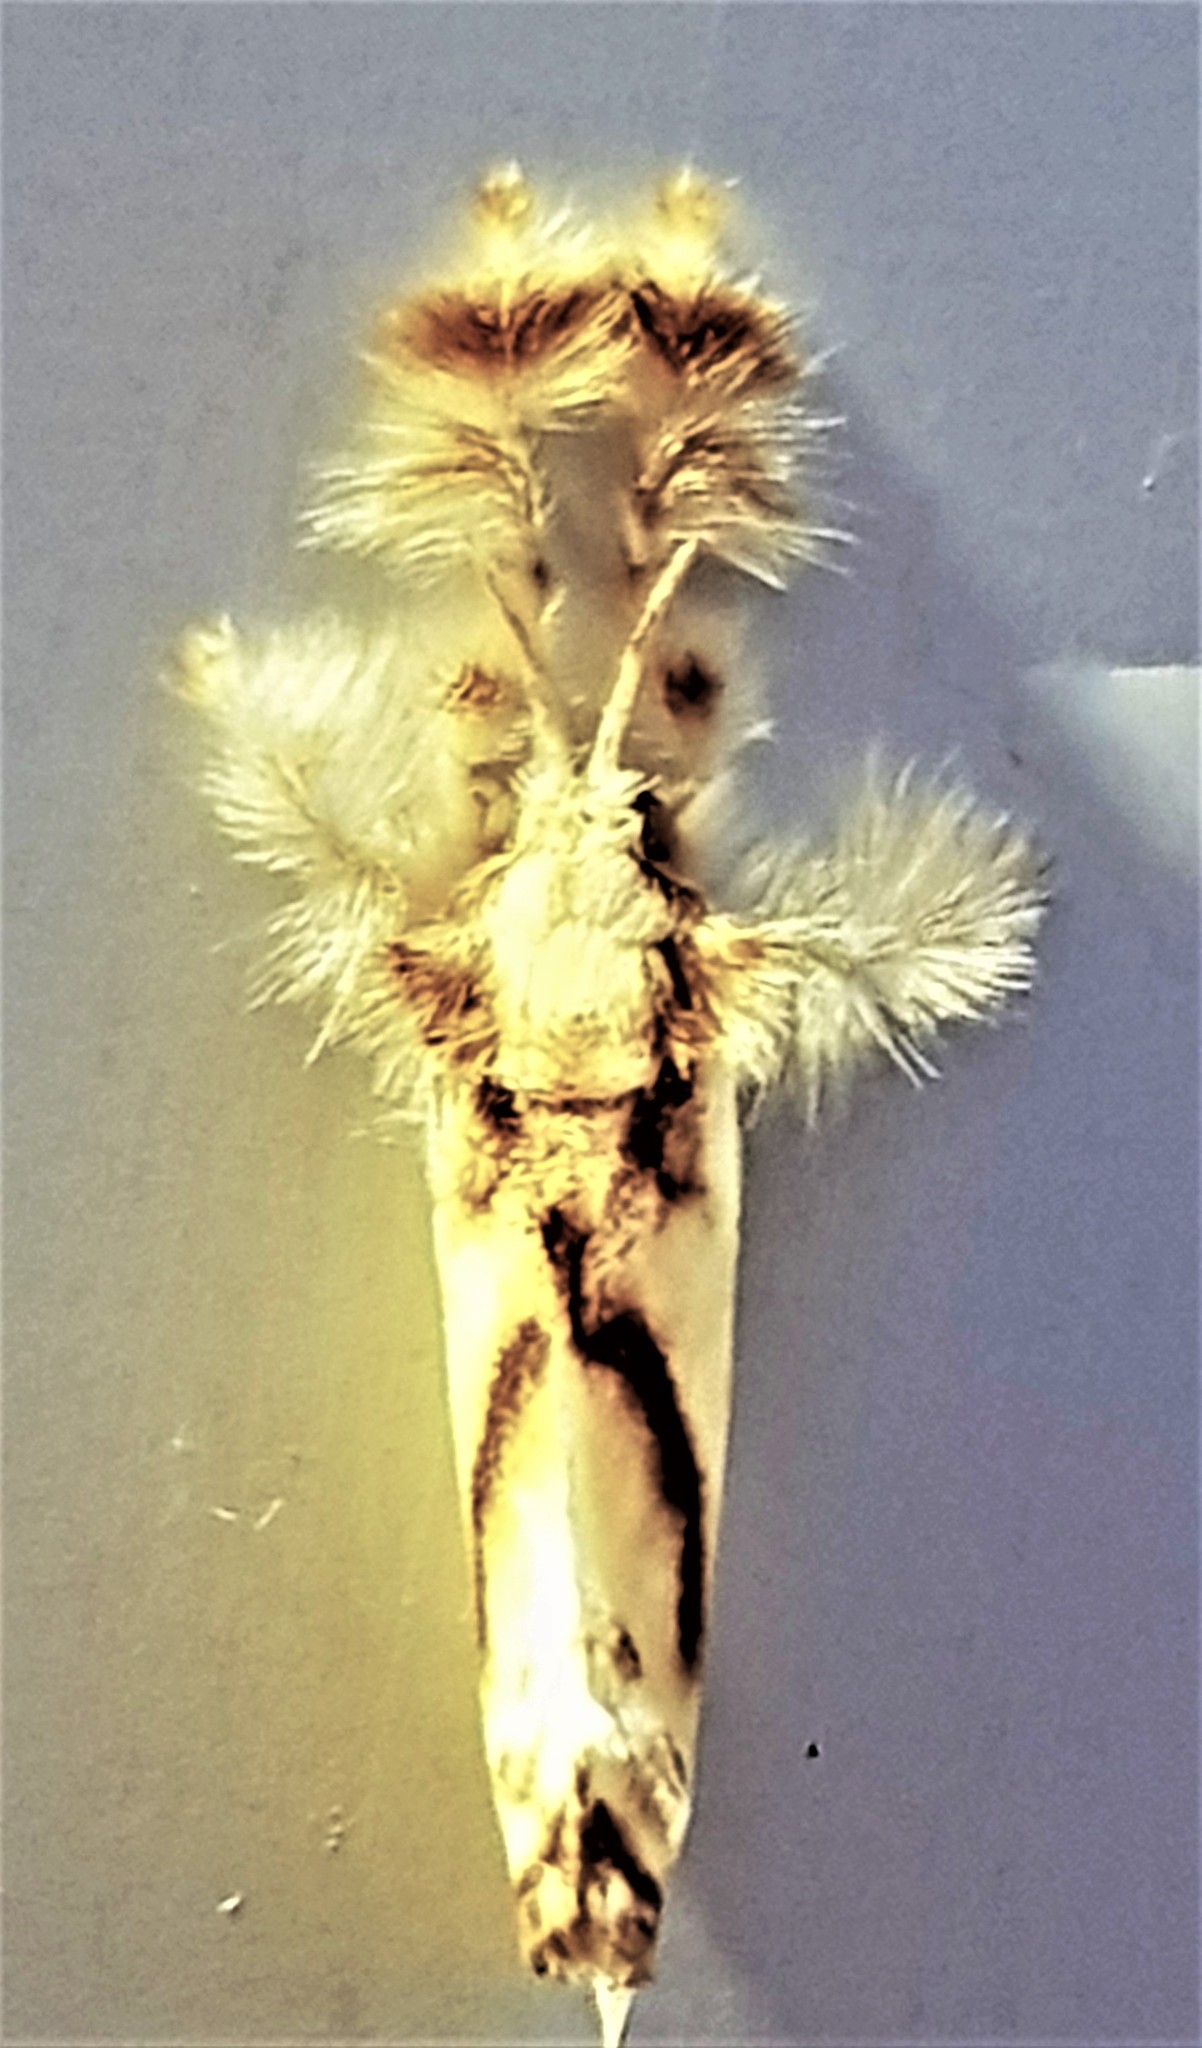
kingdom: Animalia
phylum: Arthropoda
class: Insecta
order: Lepidoptera
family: Dalceridae
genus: Acraga
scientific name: Acraga leberna
